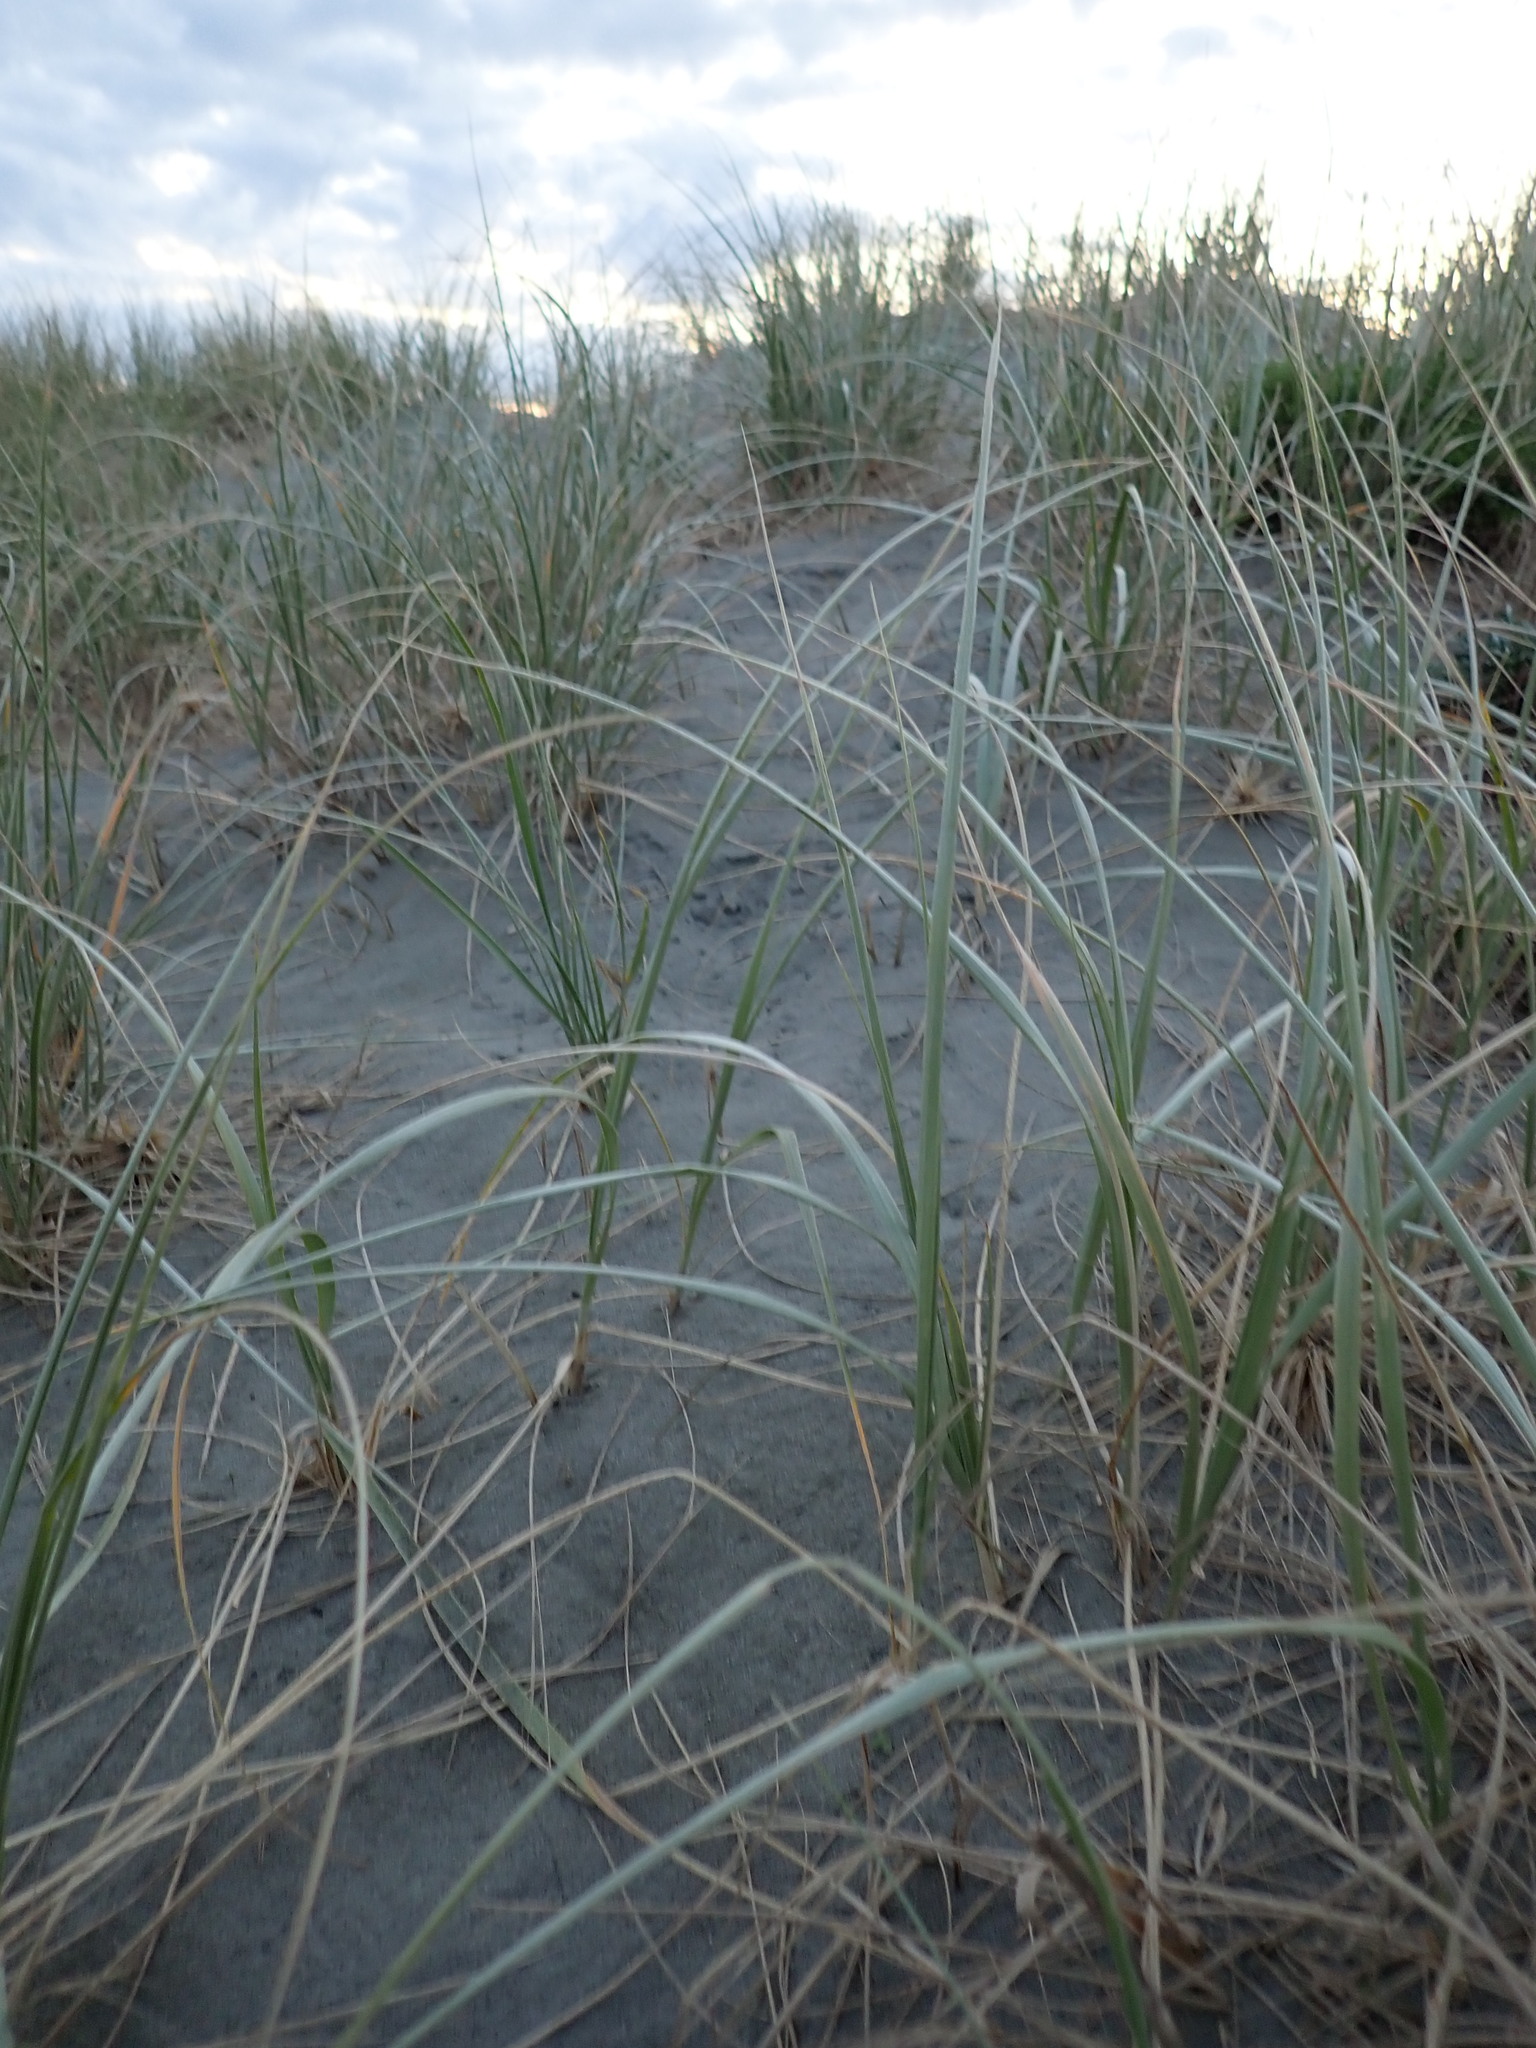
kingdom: Plantae
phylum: Tracheophyta
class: Liliopsida
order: Poales
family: Poaceae
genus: Spinifex
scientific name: Spinifex sericeus
